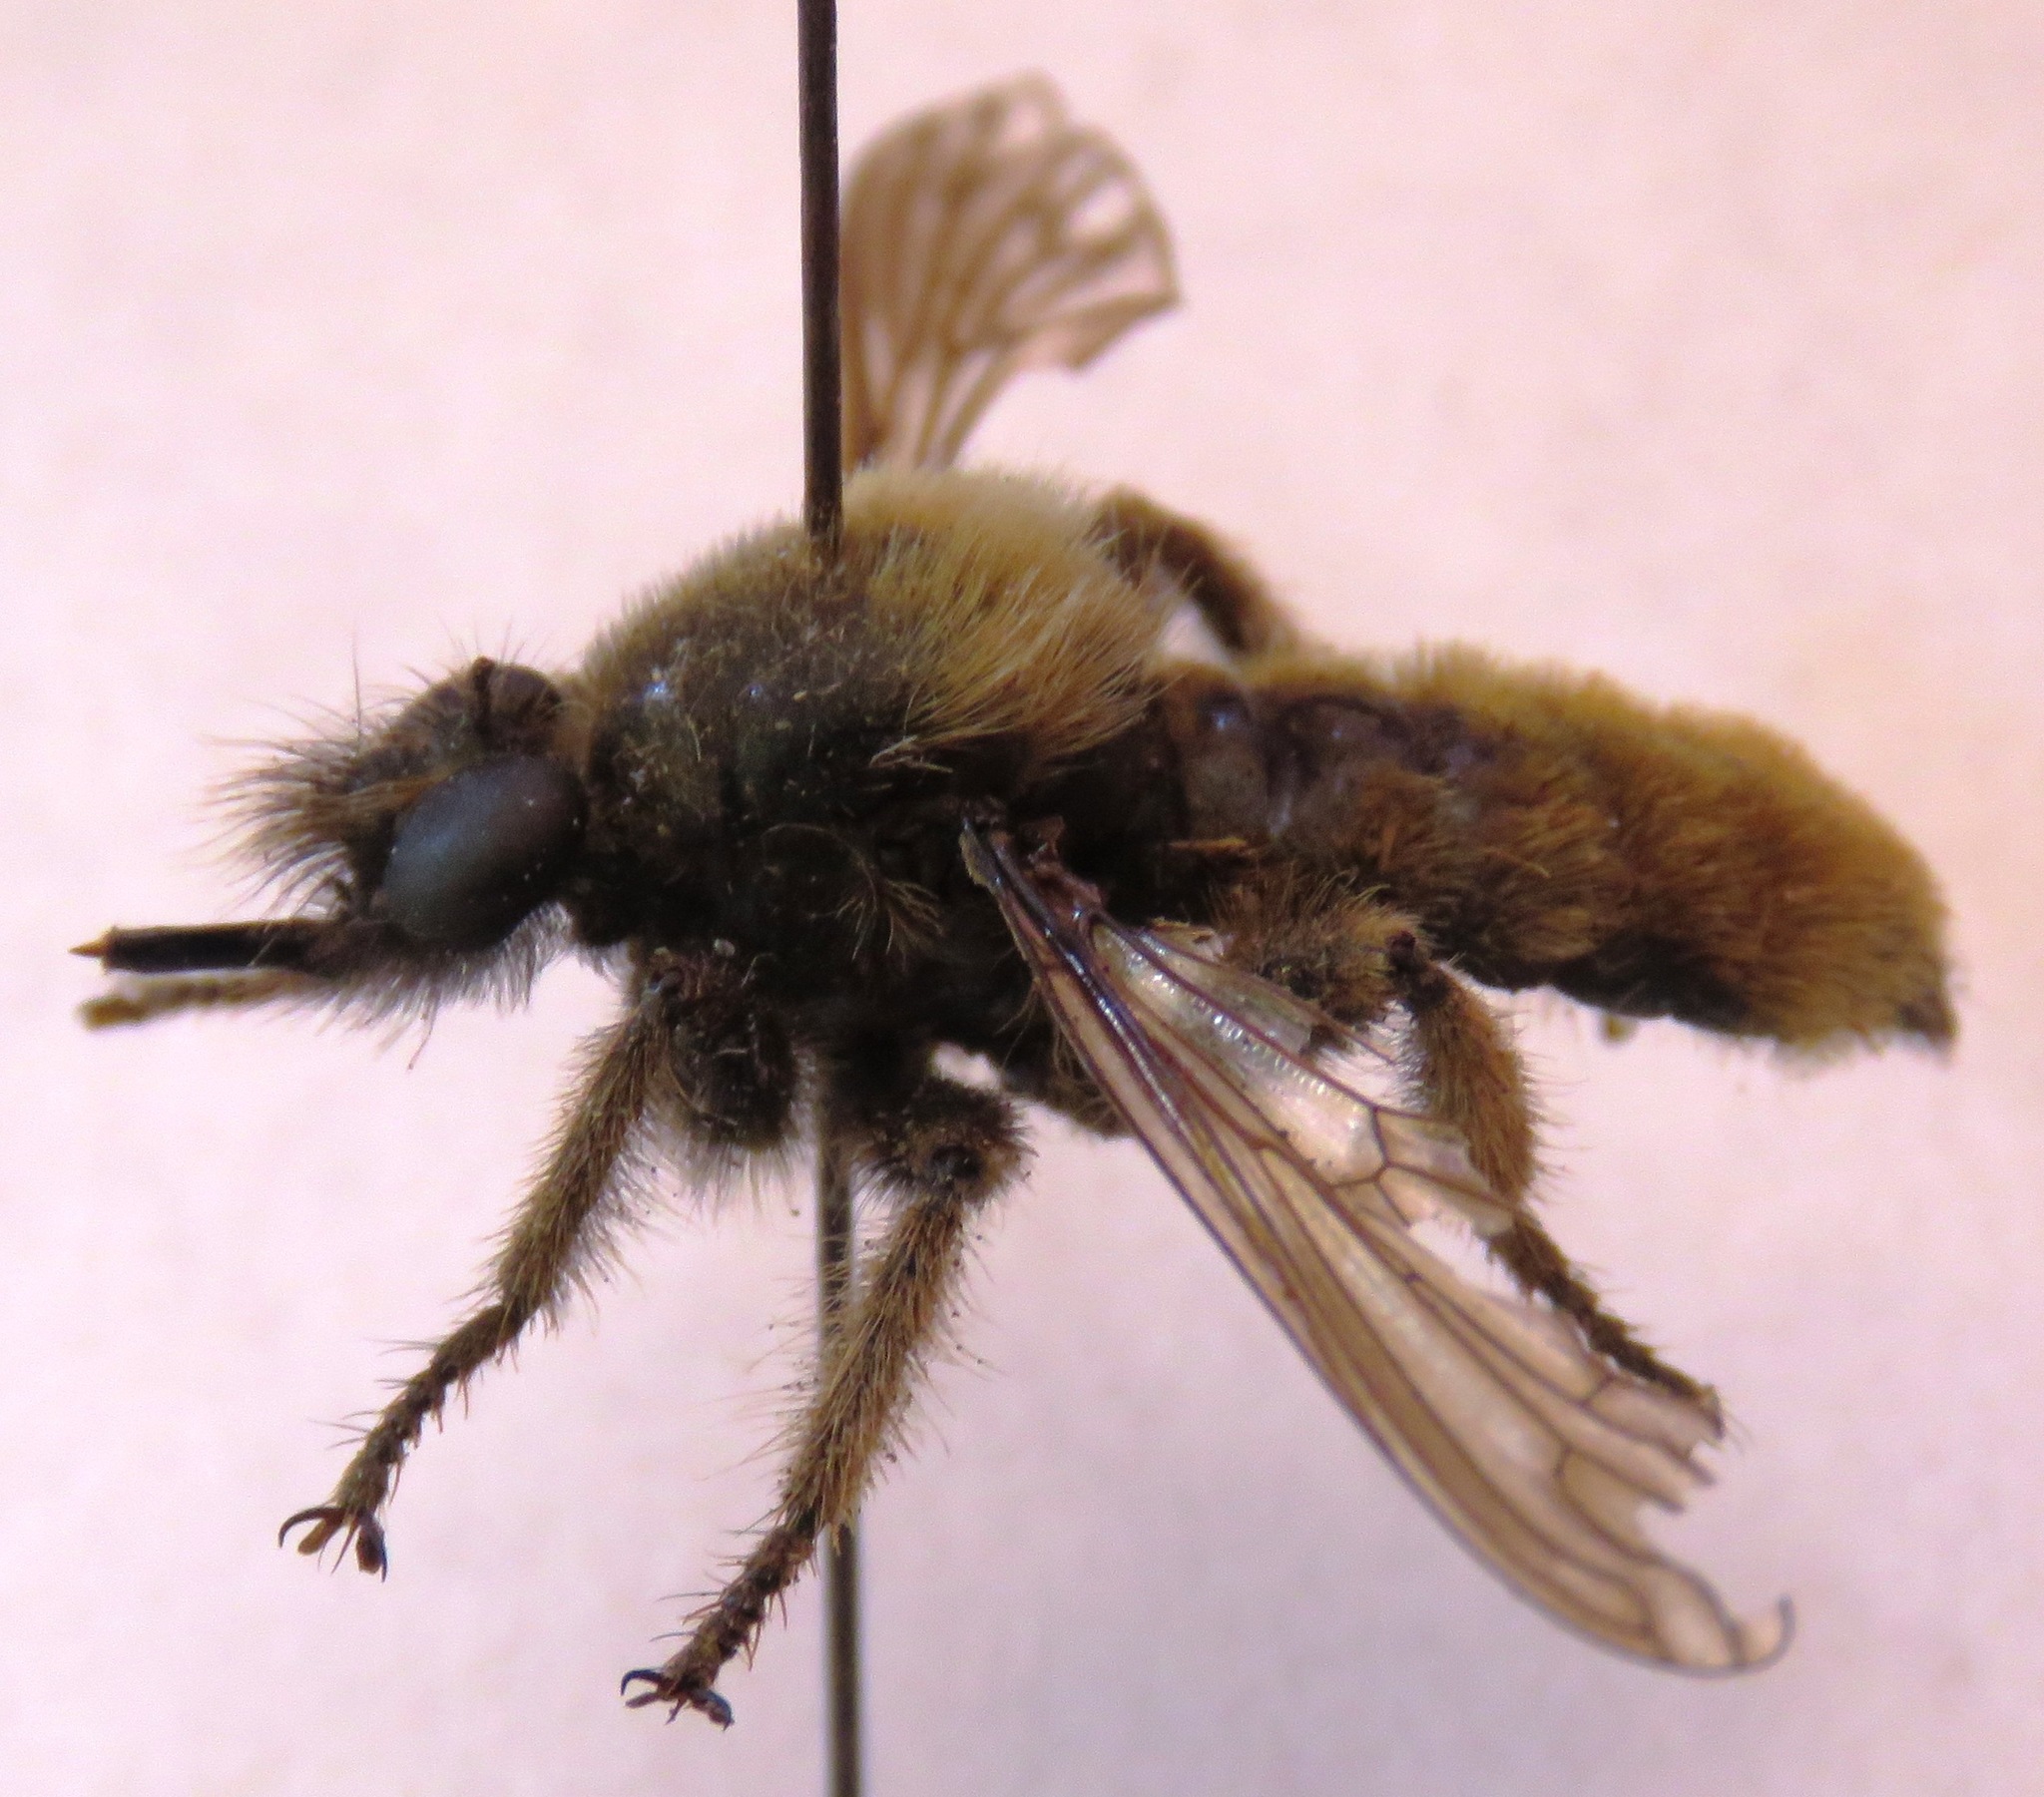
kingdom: Animalia
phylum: Arthropoda
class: Insecta
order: Diptera
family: Asilidae
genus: Laphria
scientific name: Laphria flava
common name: Bumblebee robberfly
